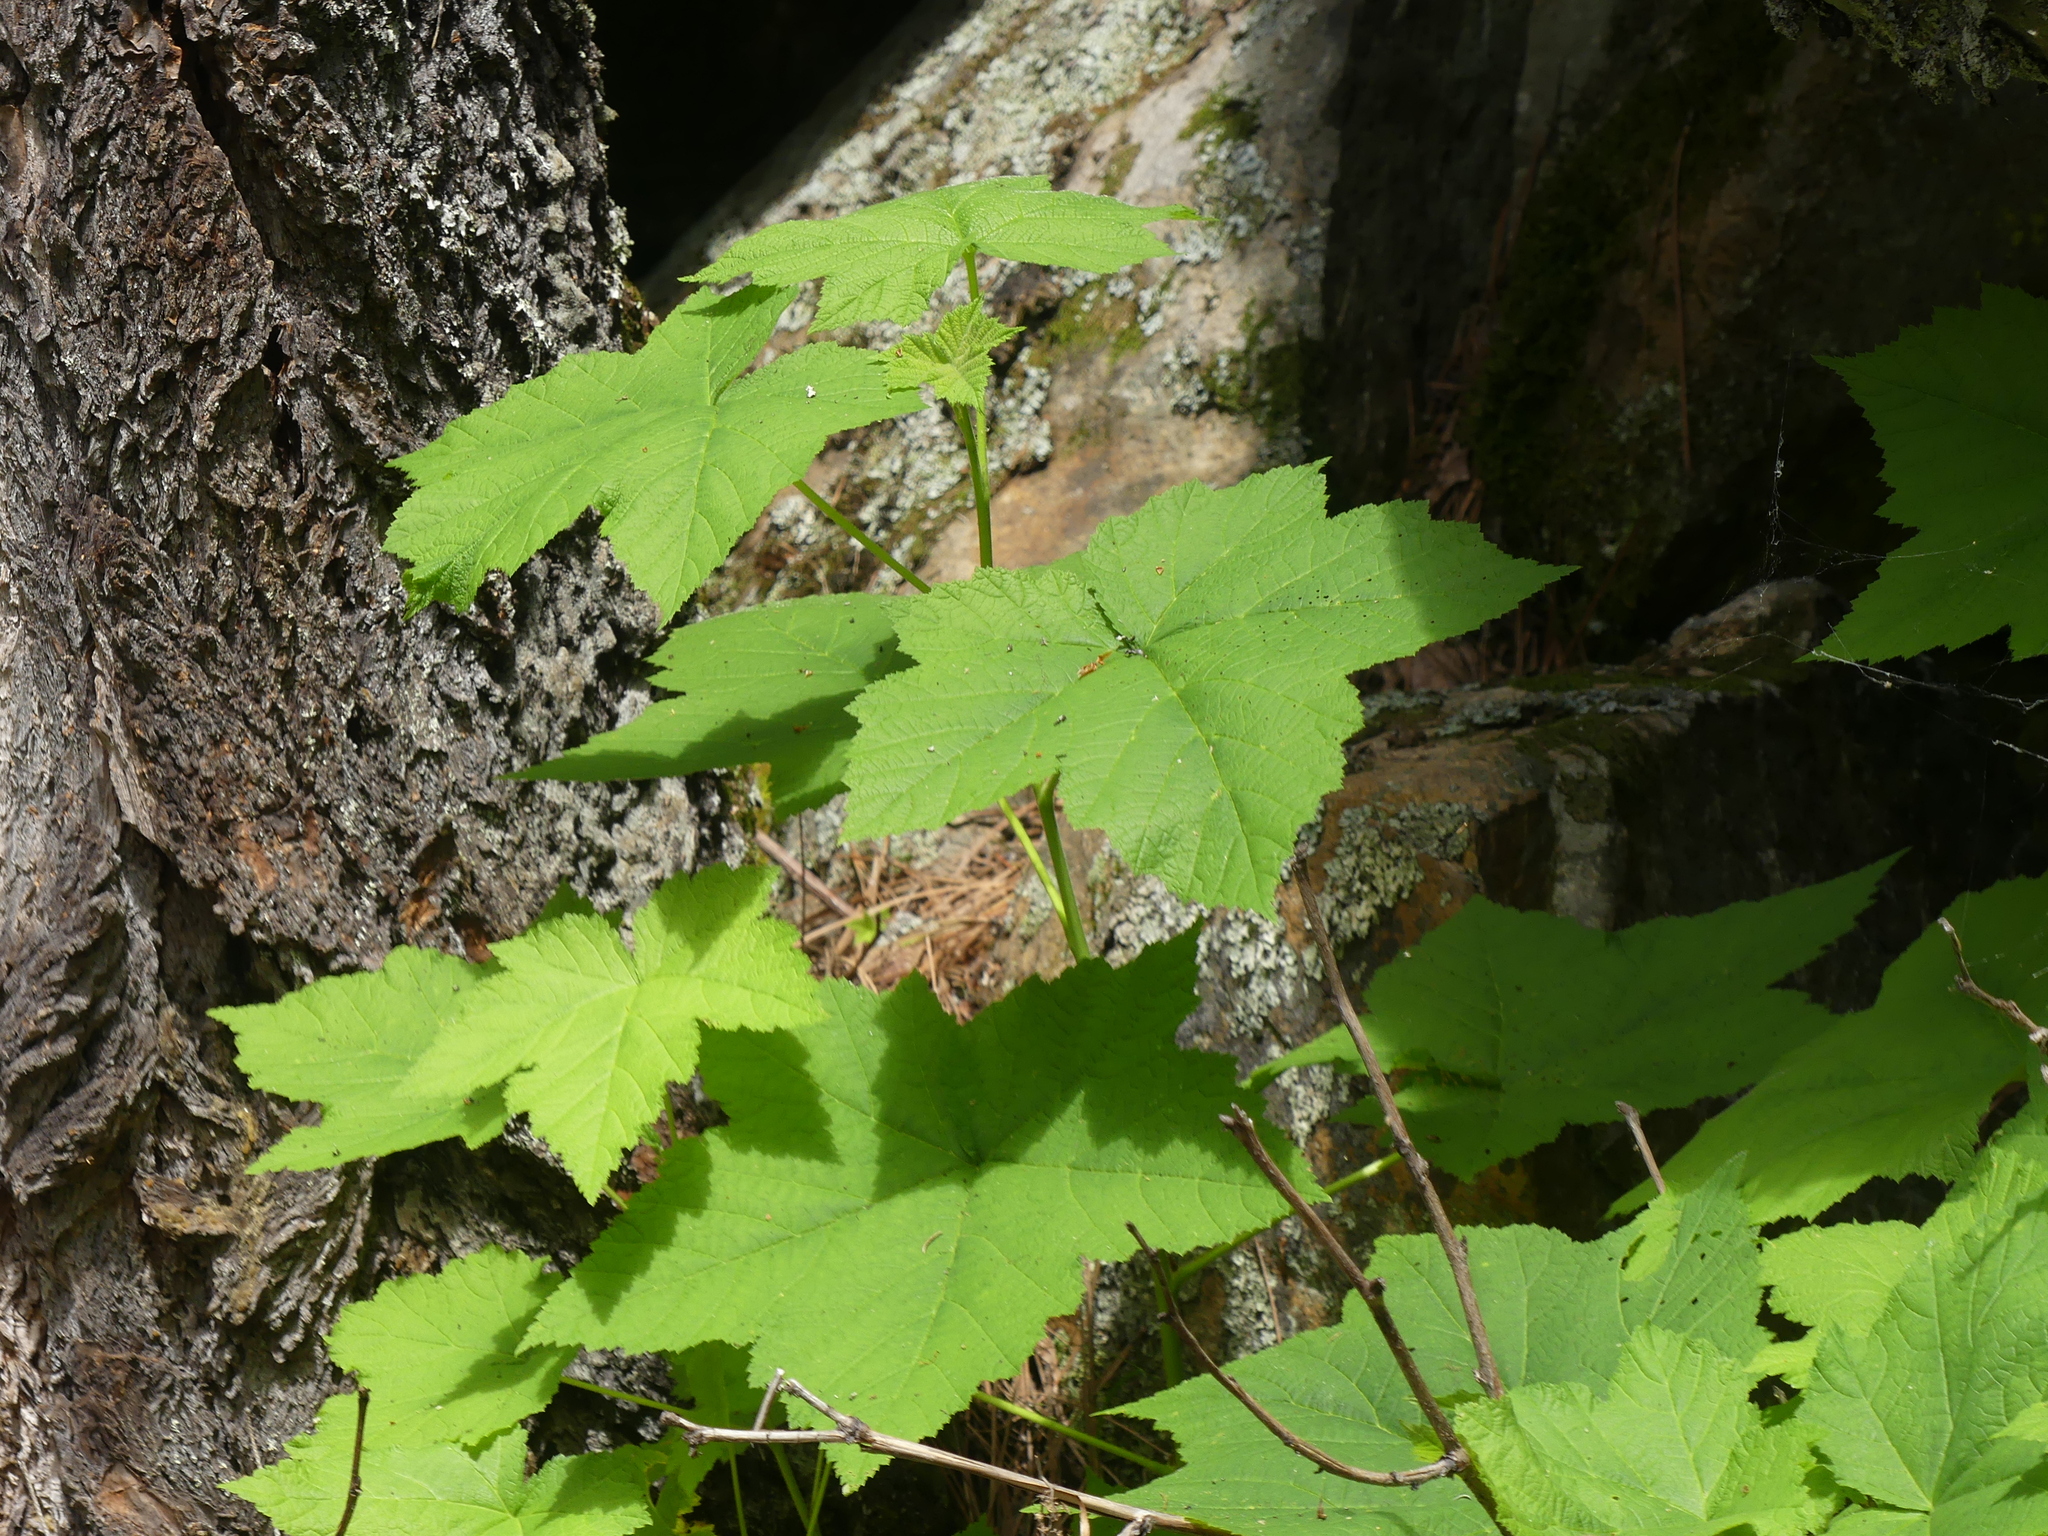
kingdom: Plantae
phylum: Tracheophyta
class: Magnoliopsida
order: Rosales
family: Rosaceae
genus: Rubus
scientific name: Rubus parviflorus
